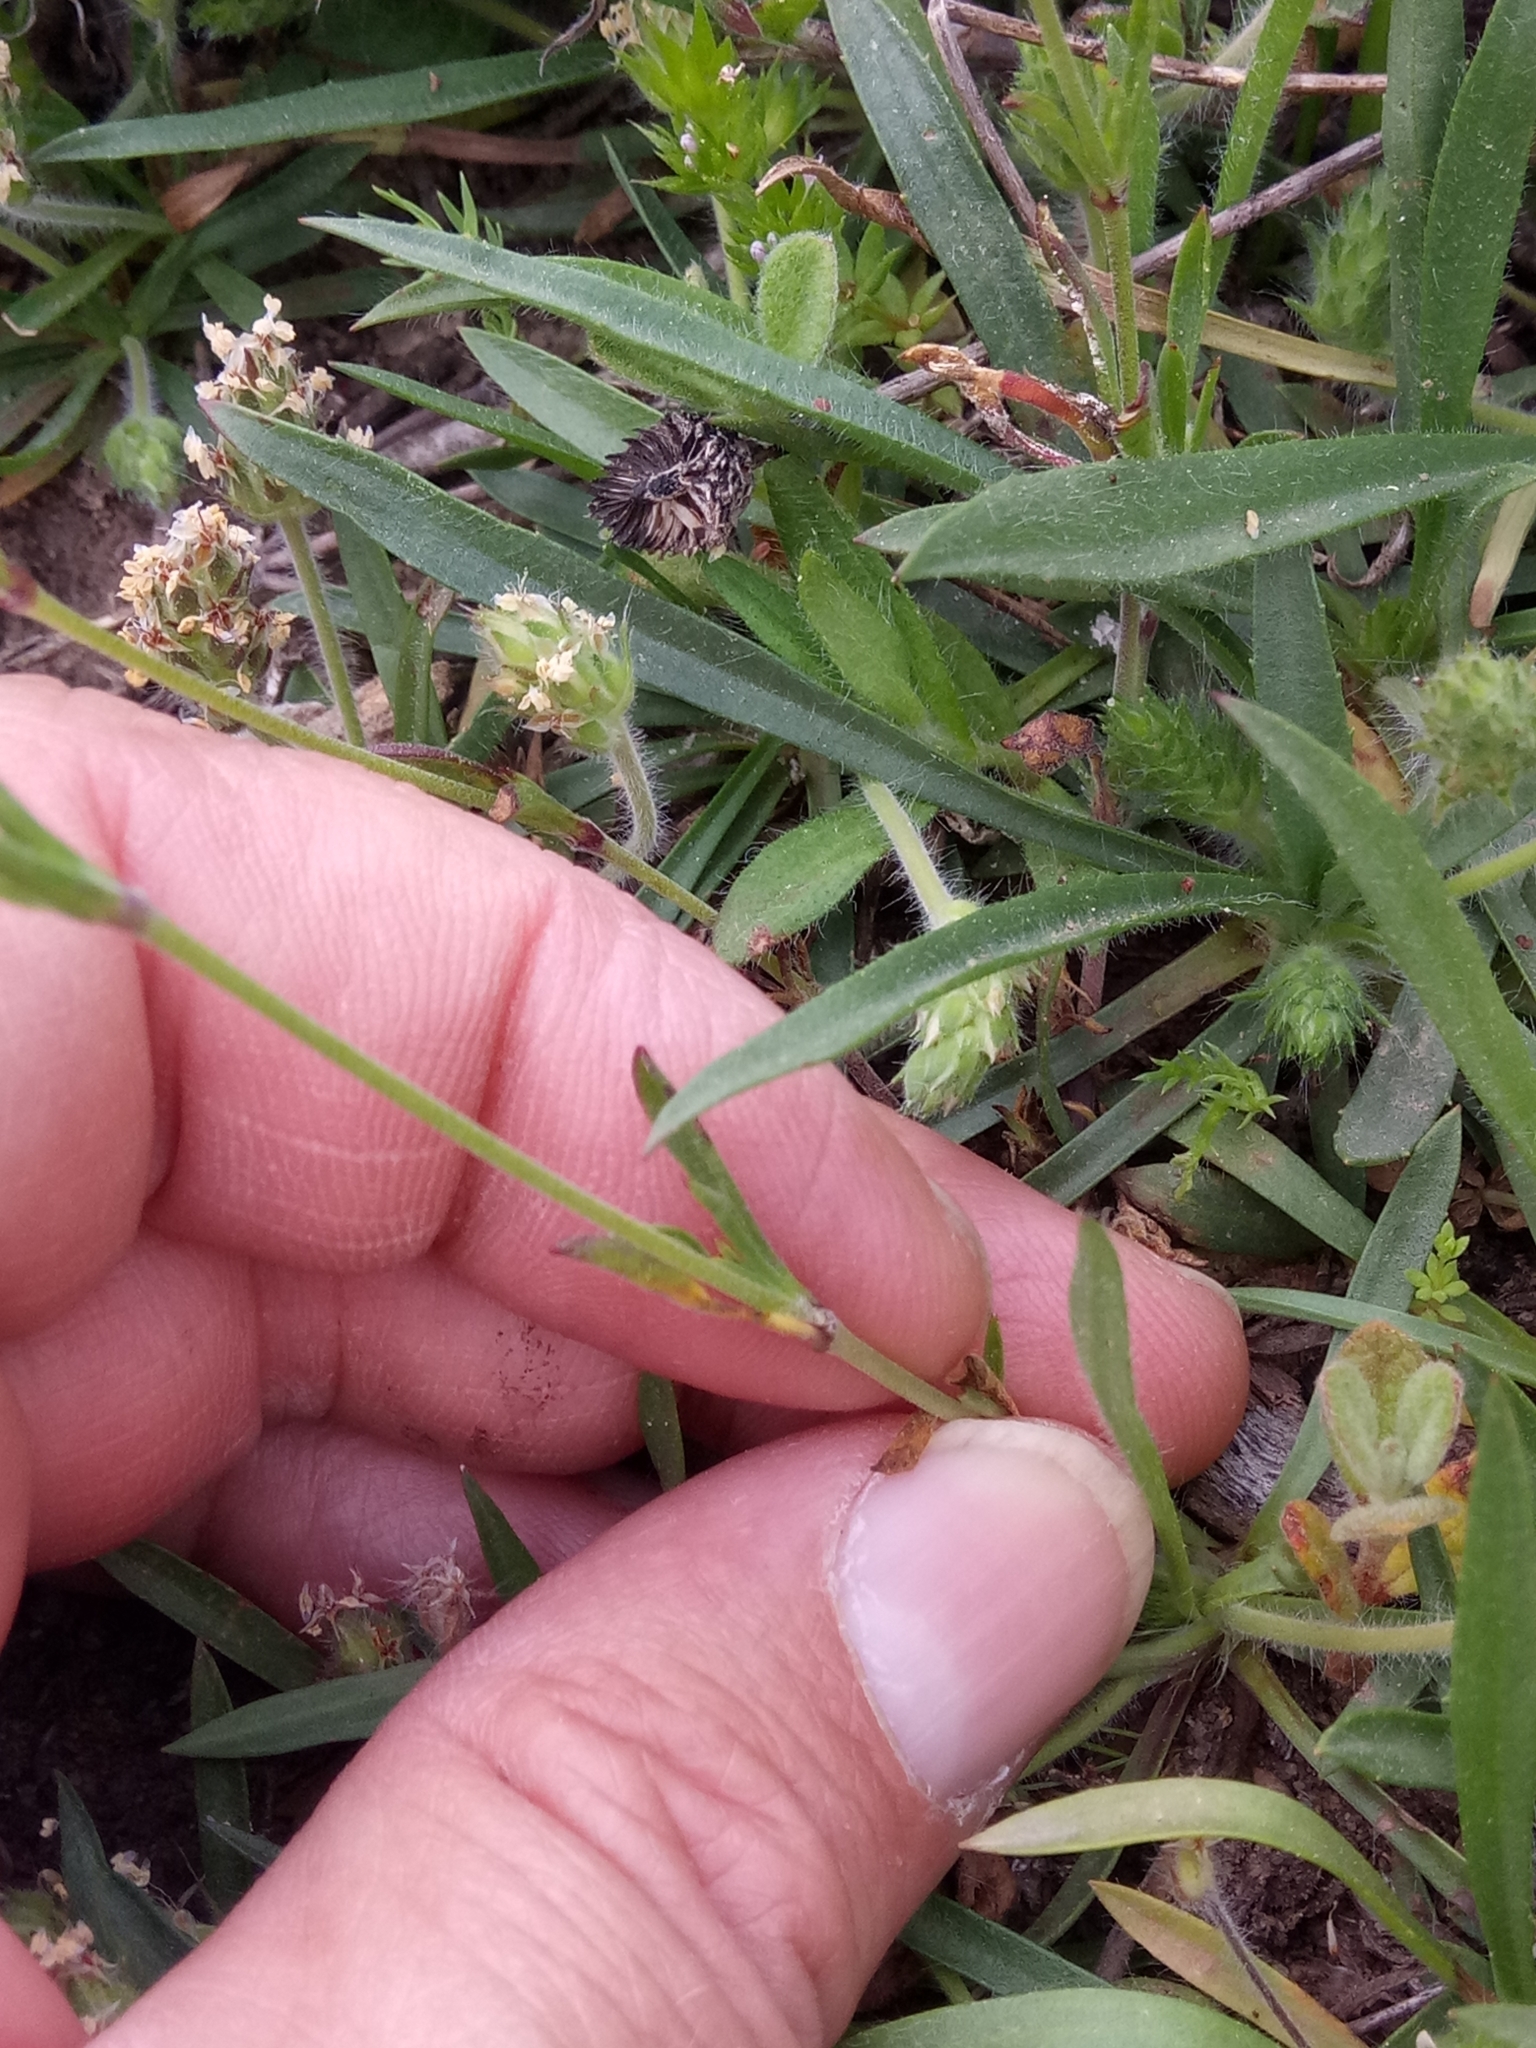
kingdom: Plantae
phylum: Tracheophyta
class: Magnoliopsida
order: Caryophyllales
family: Caryophyllaceae
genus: Silene
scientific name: Silene secundiflora
